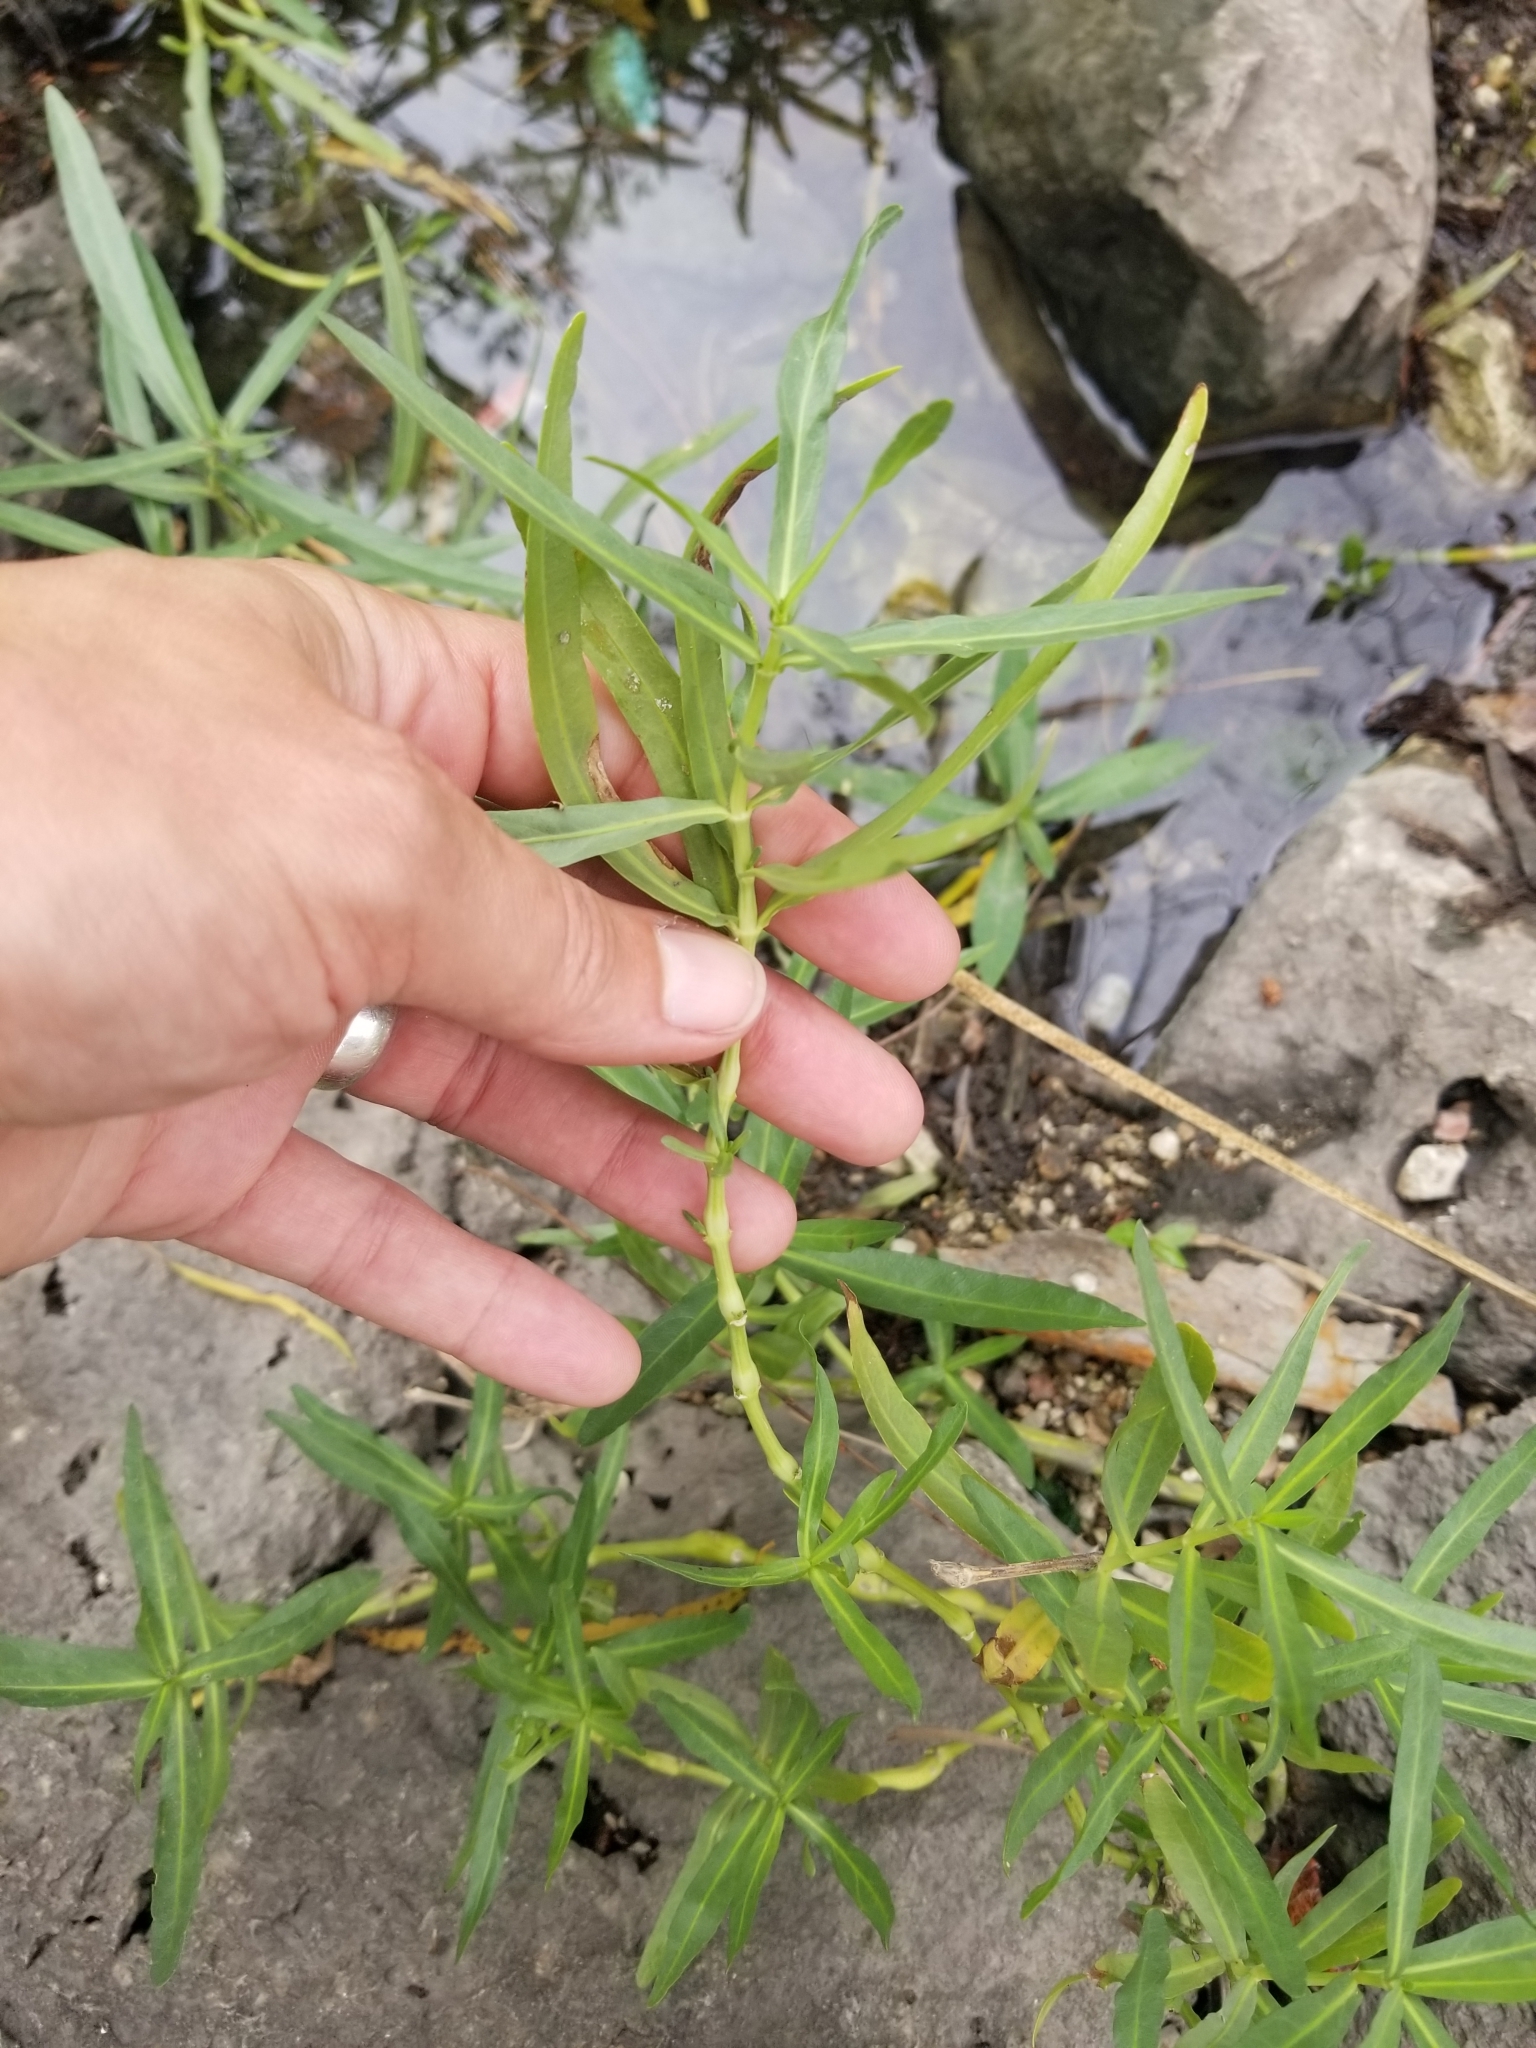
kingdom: Plantae
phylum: Tracheophyta
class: Magnoliopsida
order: Lamiales
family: Acanthaceae
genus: Dianthera
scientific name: Dianthera americana
